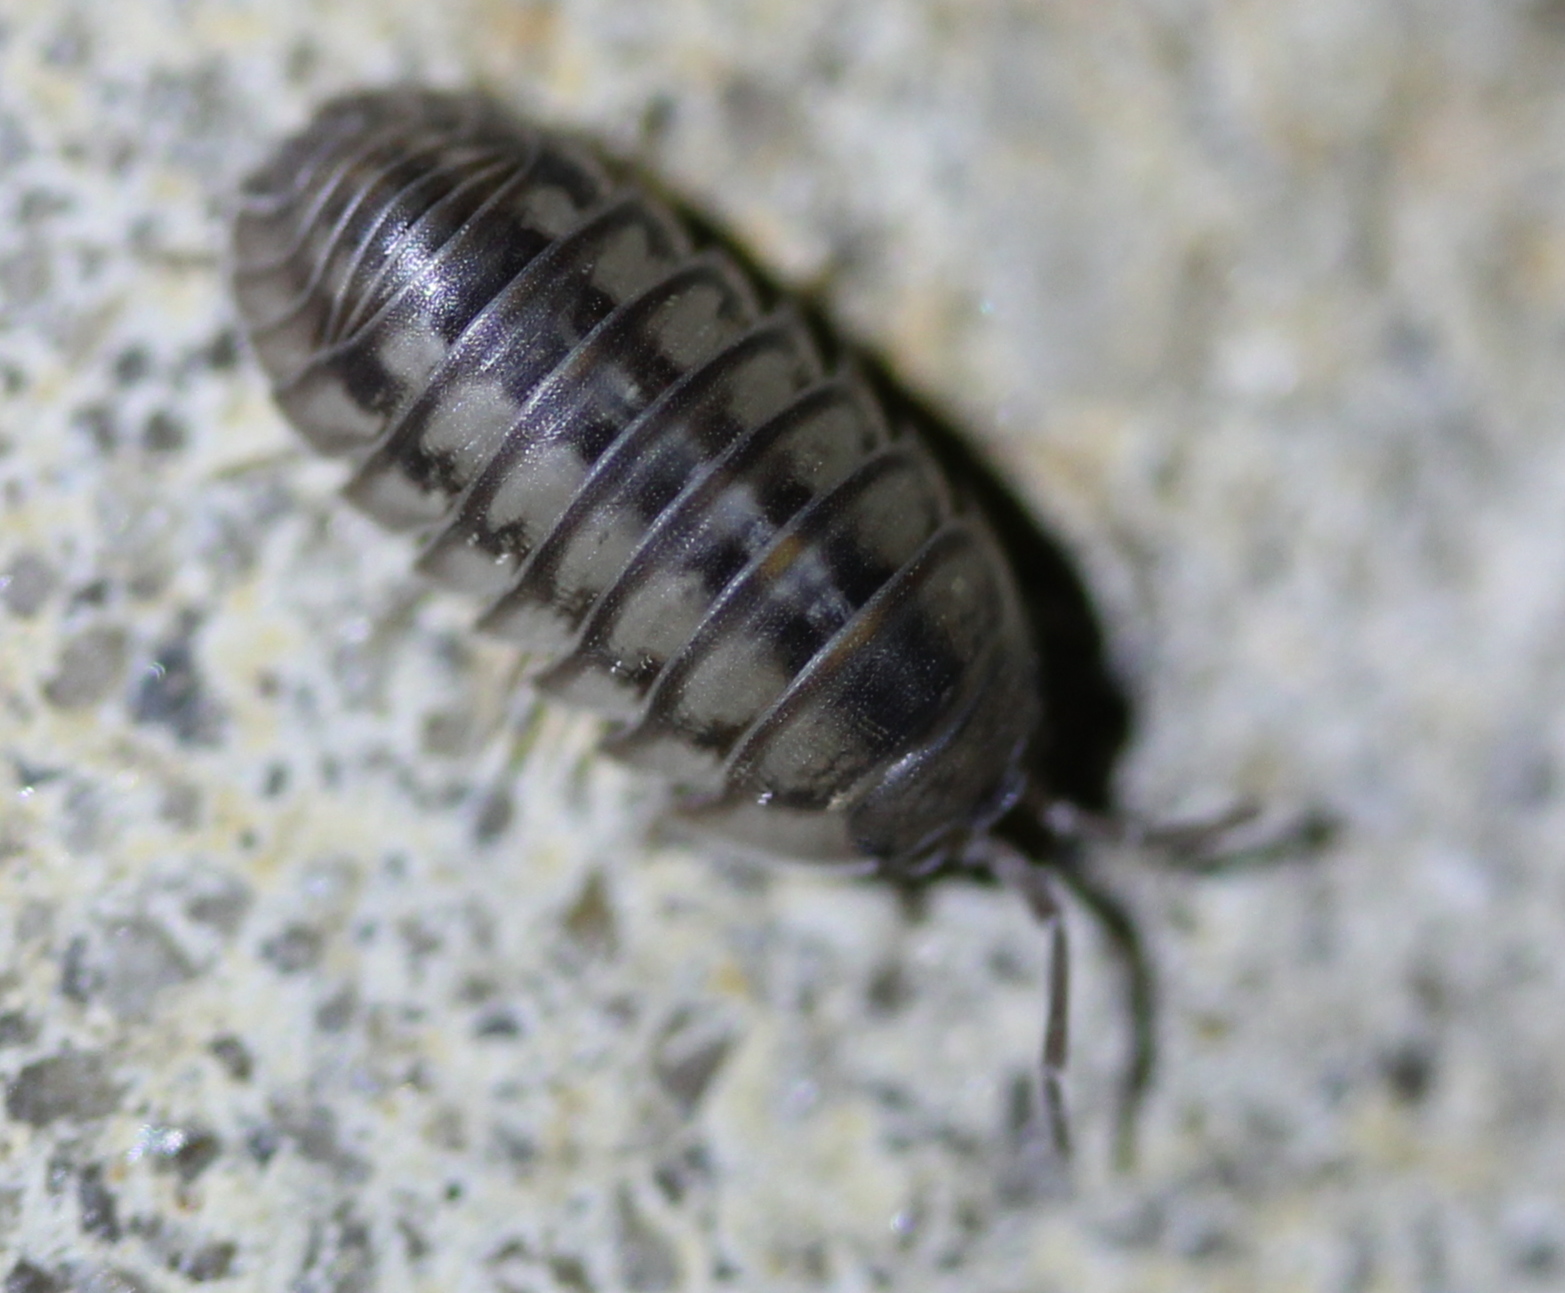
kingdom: Animalia
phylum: Arthropoda
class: Malacostraca
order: Isopoda
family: Armadillidiidae
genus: Armadillidium
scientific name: Armadillidium nasatum
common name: Isopod
